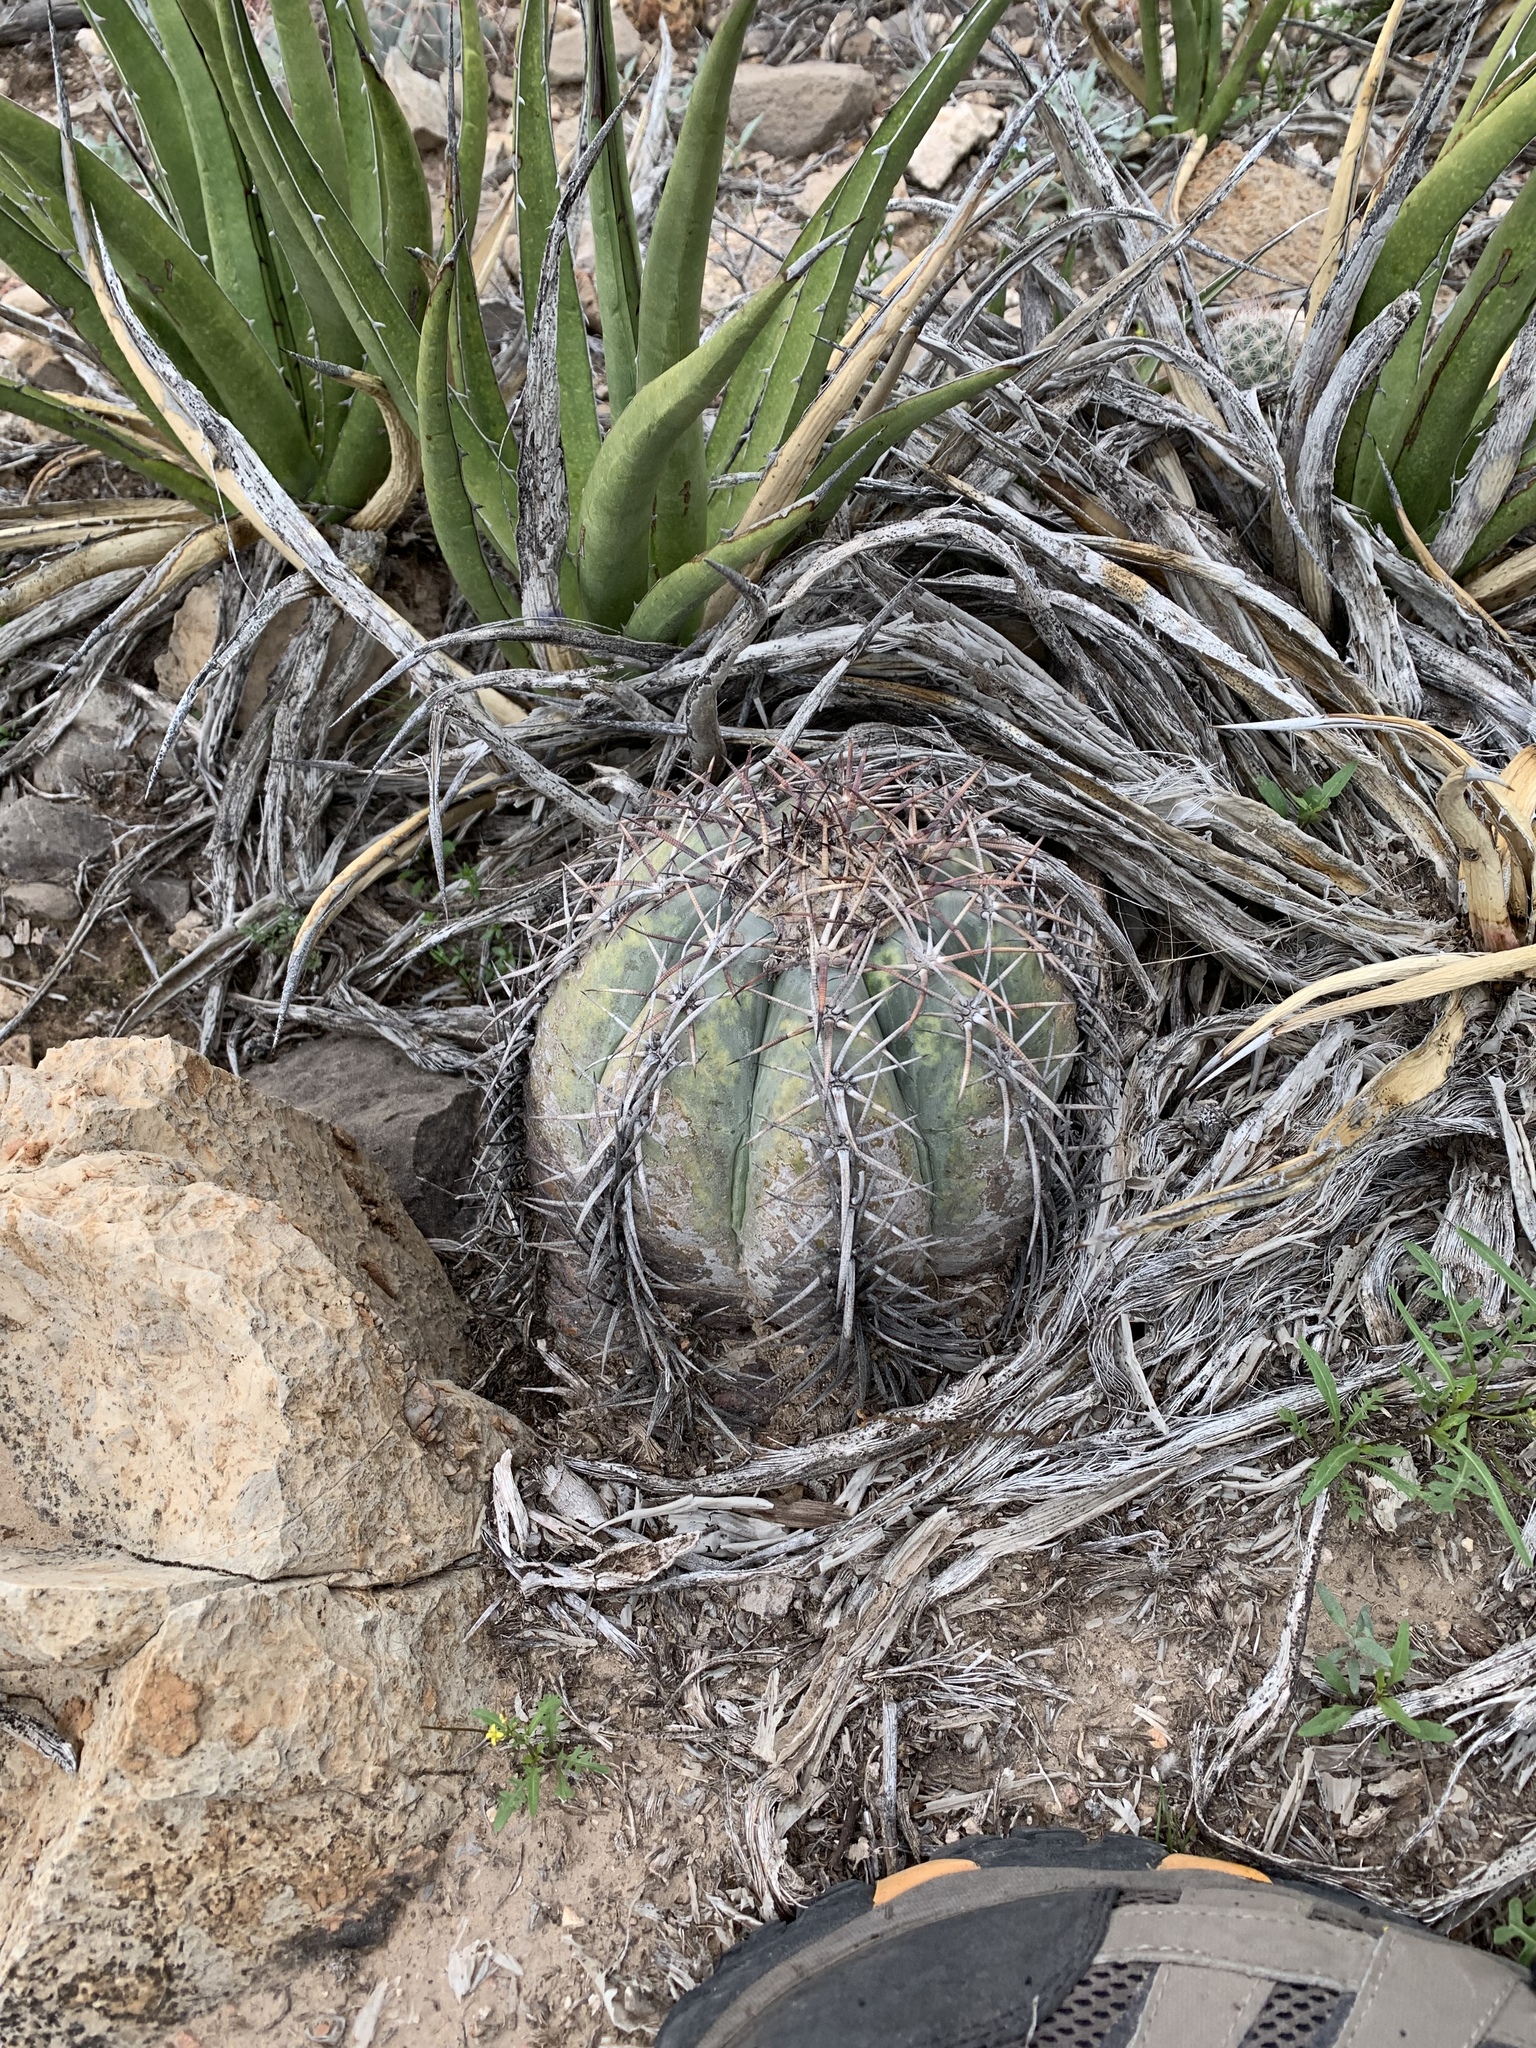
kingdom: Plantae
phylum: Tracheophyta
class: Magnoliopsida
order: Caryophyllales
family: Cactaceae
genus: Echinocactus
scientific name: Echinocactus horizonthalonius
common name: Devilshead
